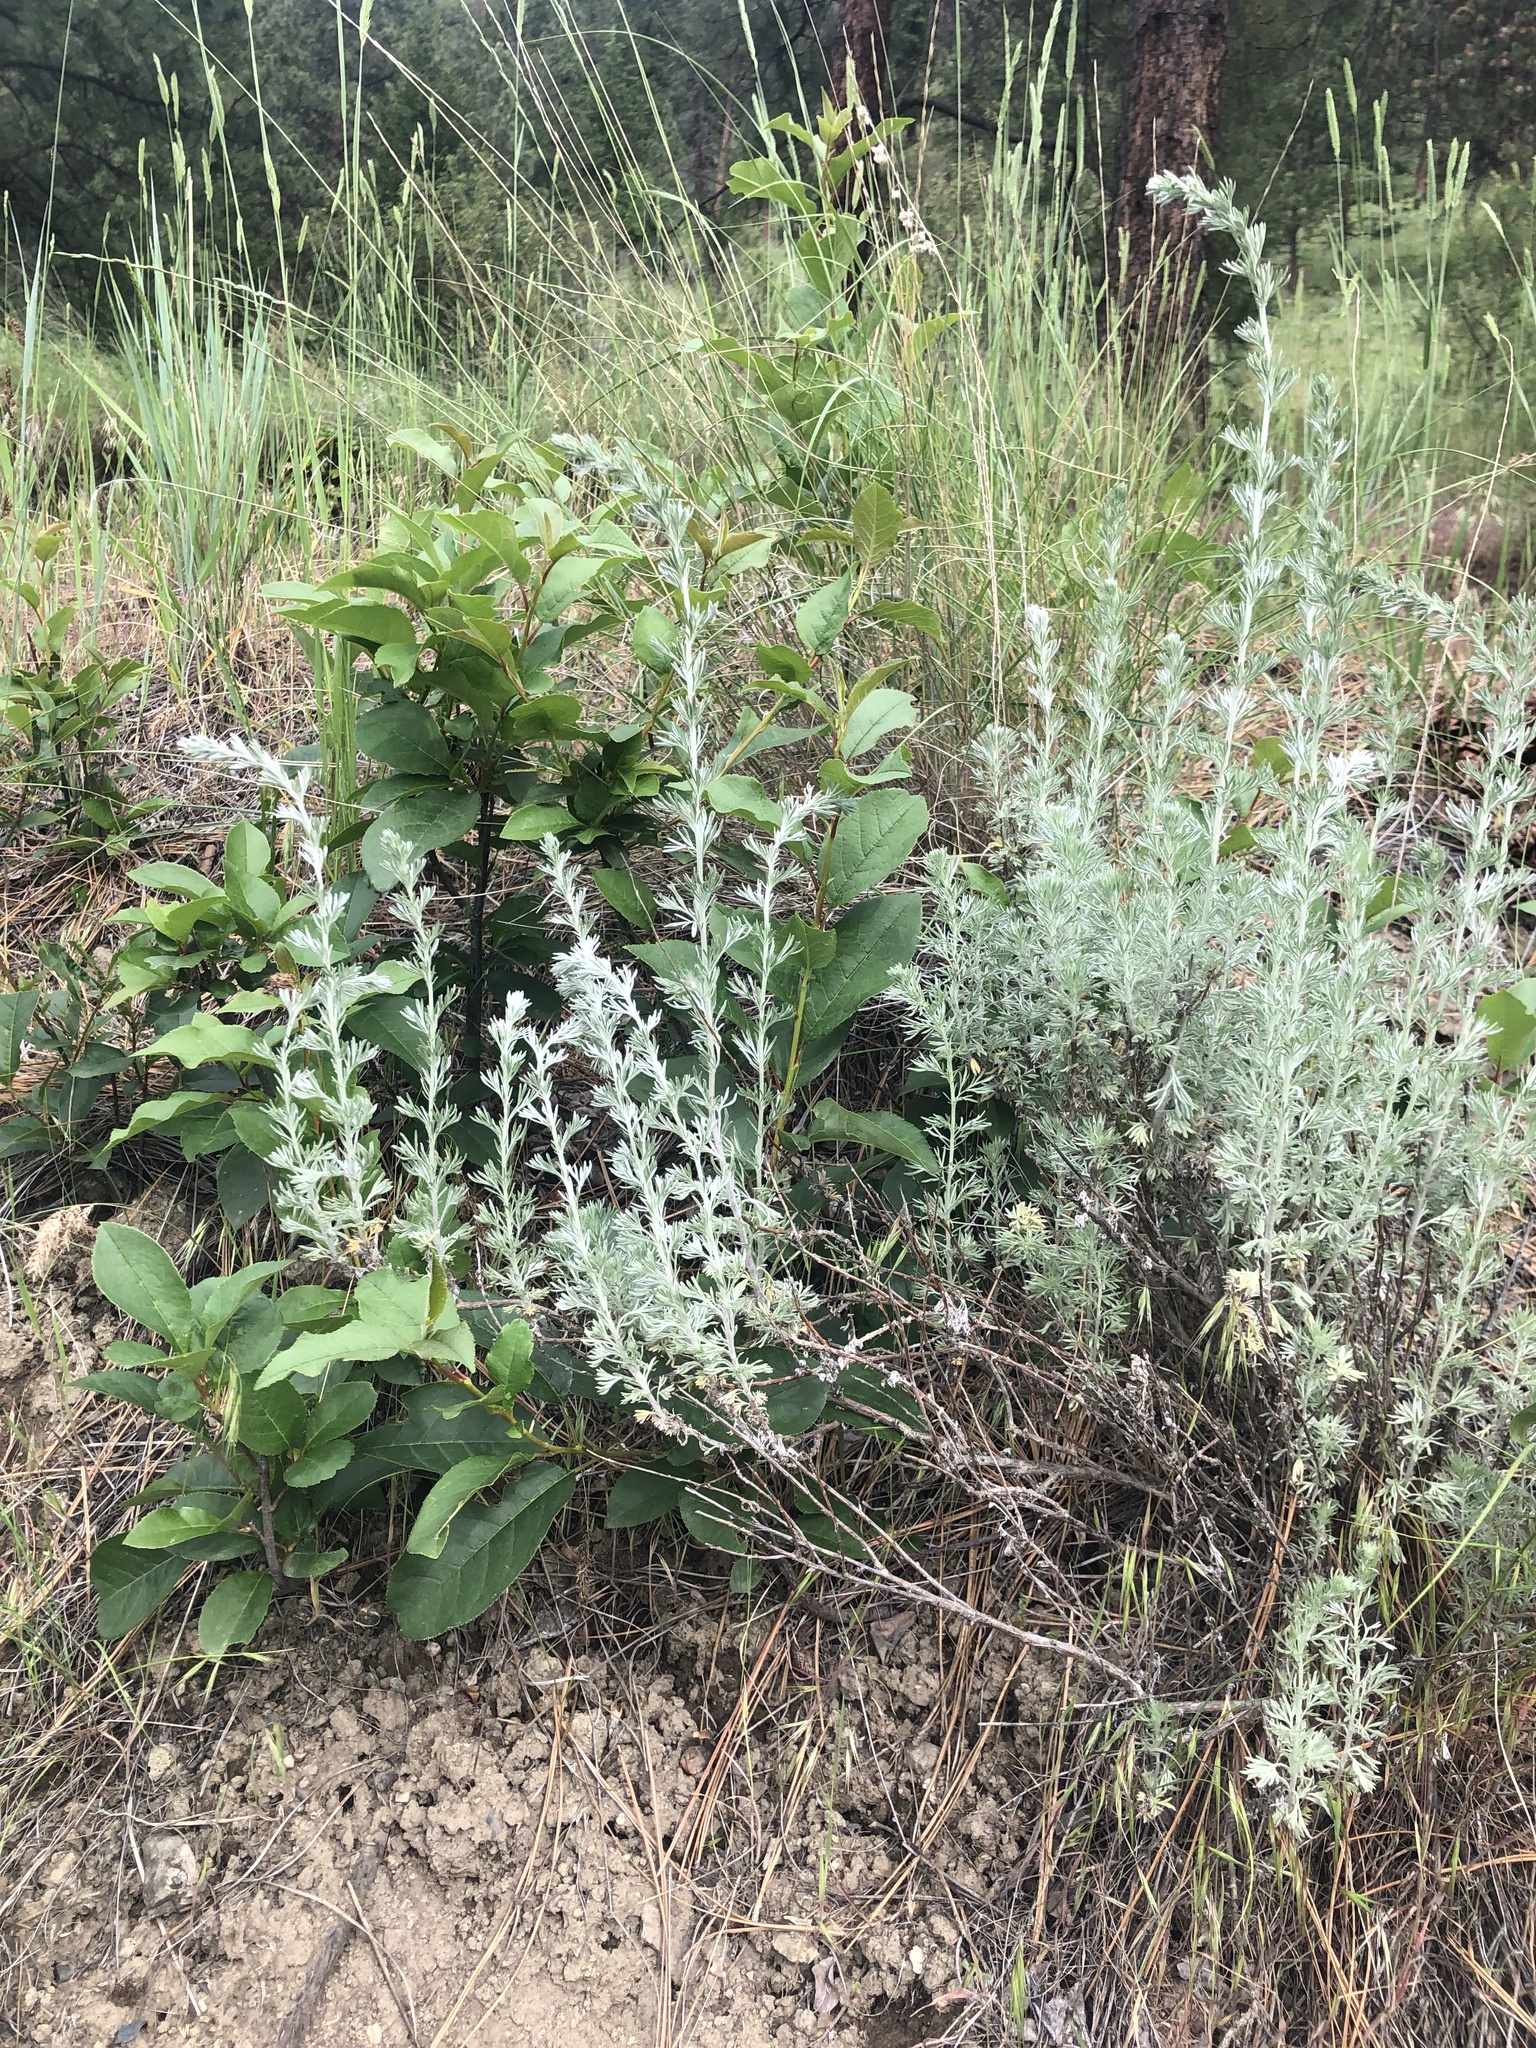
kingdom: Plantae
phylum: Tracheophyta
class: Magnoliopsida
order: Asterales
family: Asteraceae
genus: Artemisia
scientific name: Artemisia frigida
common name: Prairie sagewort
